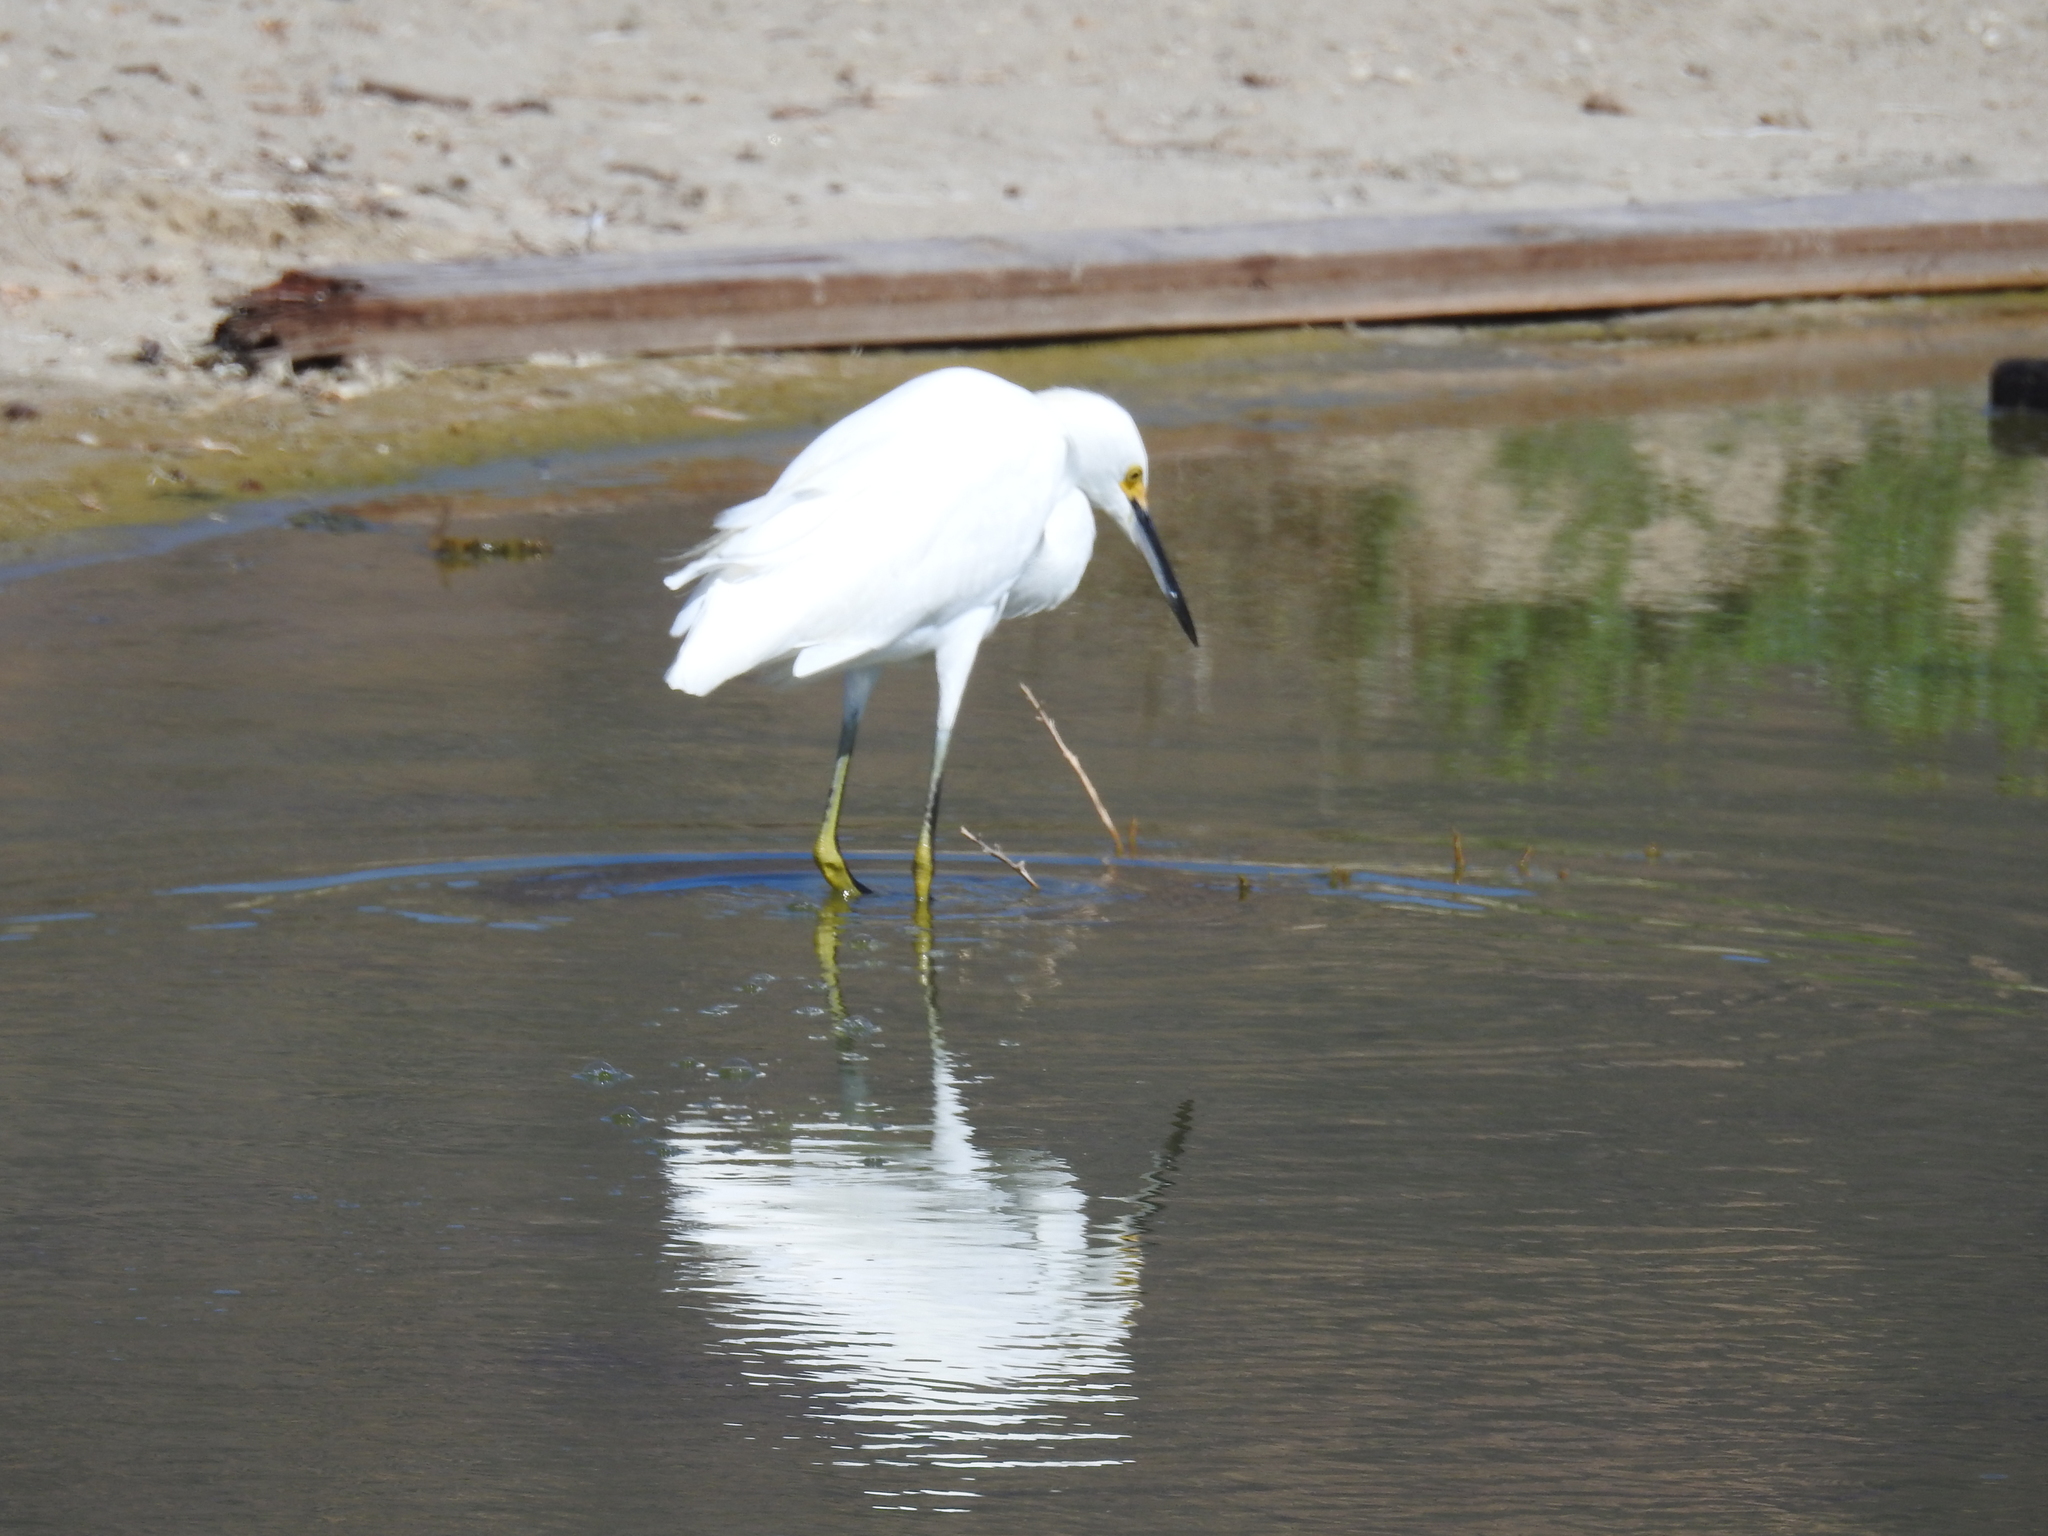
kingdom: Animalia
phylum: Chordata
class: Aves
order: Pelecaniformes
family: Ardeidae
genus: Egretta
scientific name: Egretta thula
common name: Snowy egret
